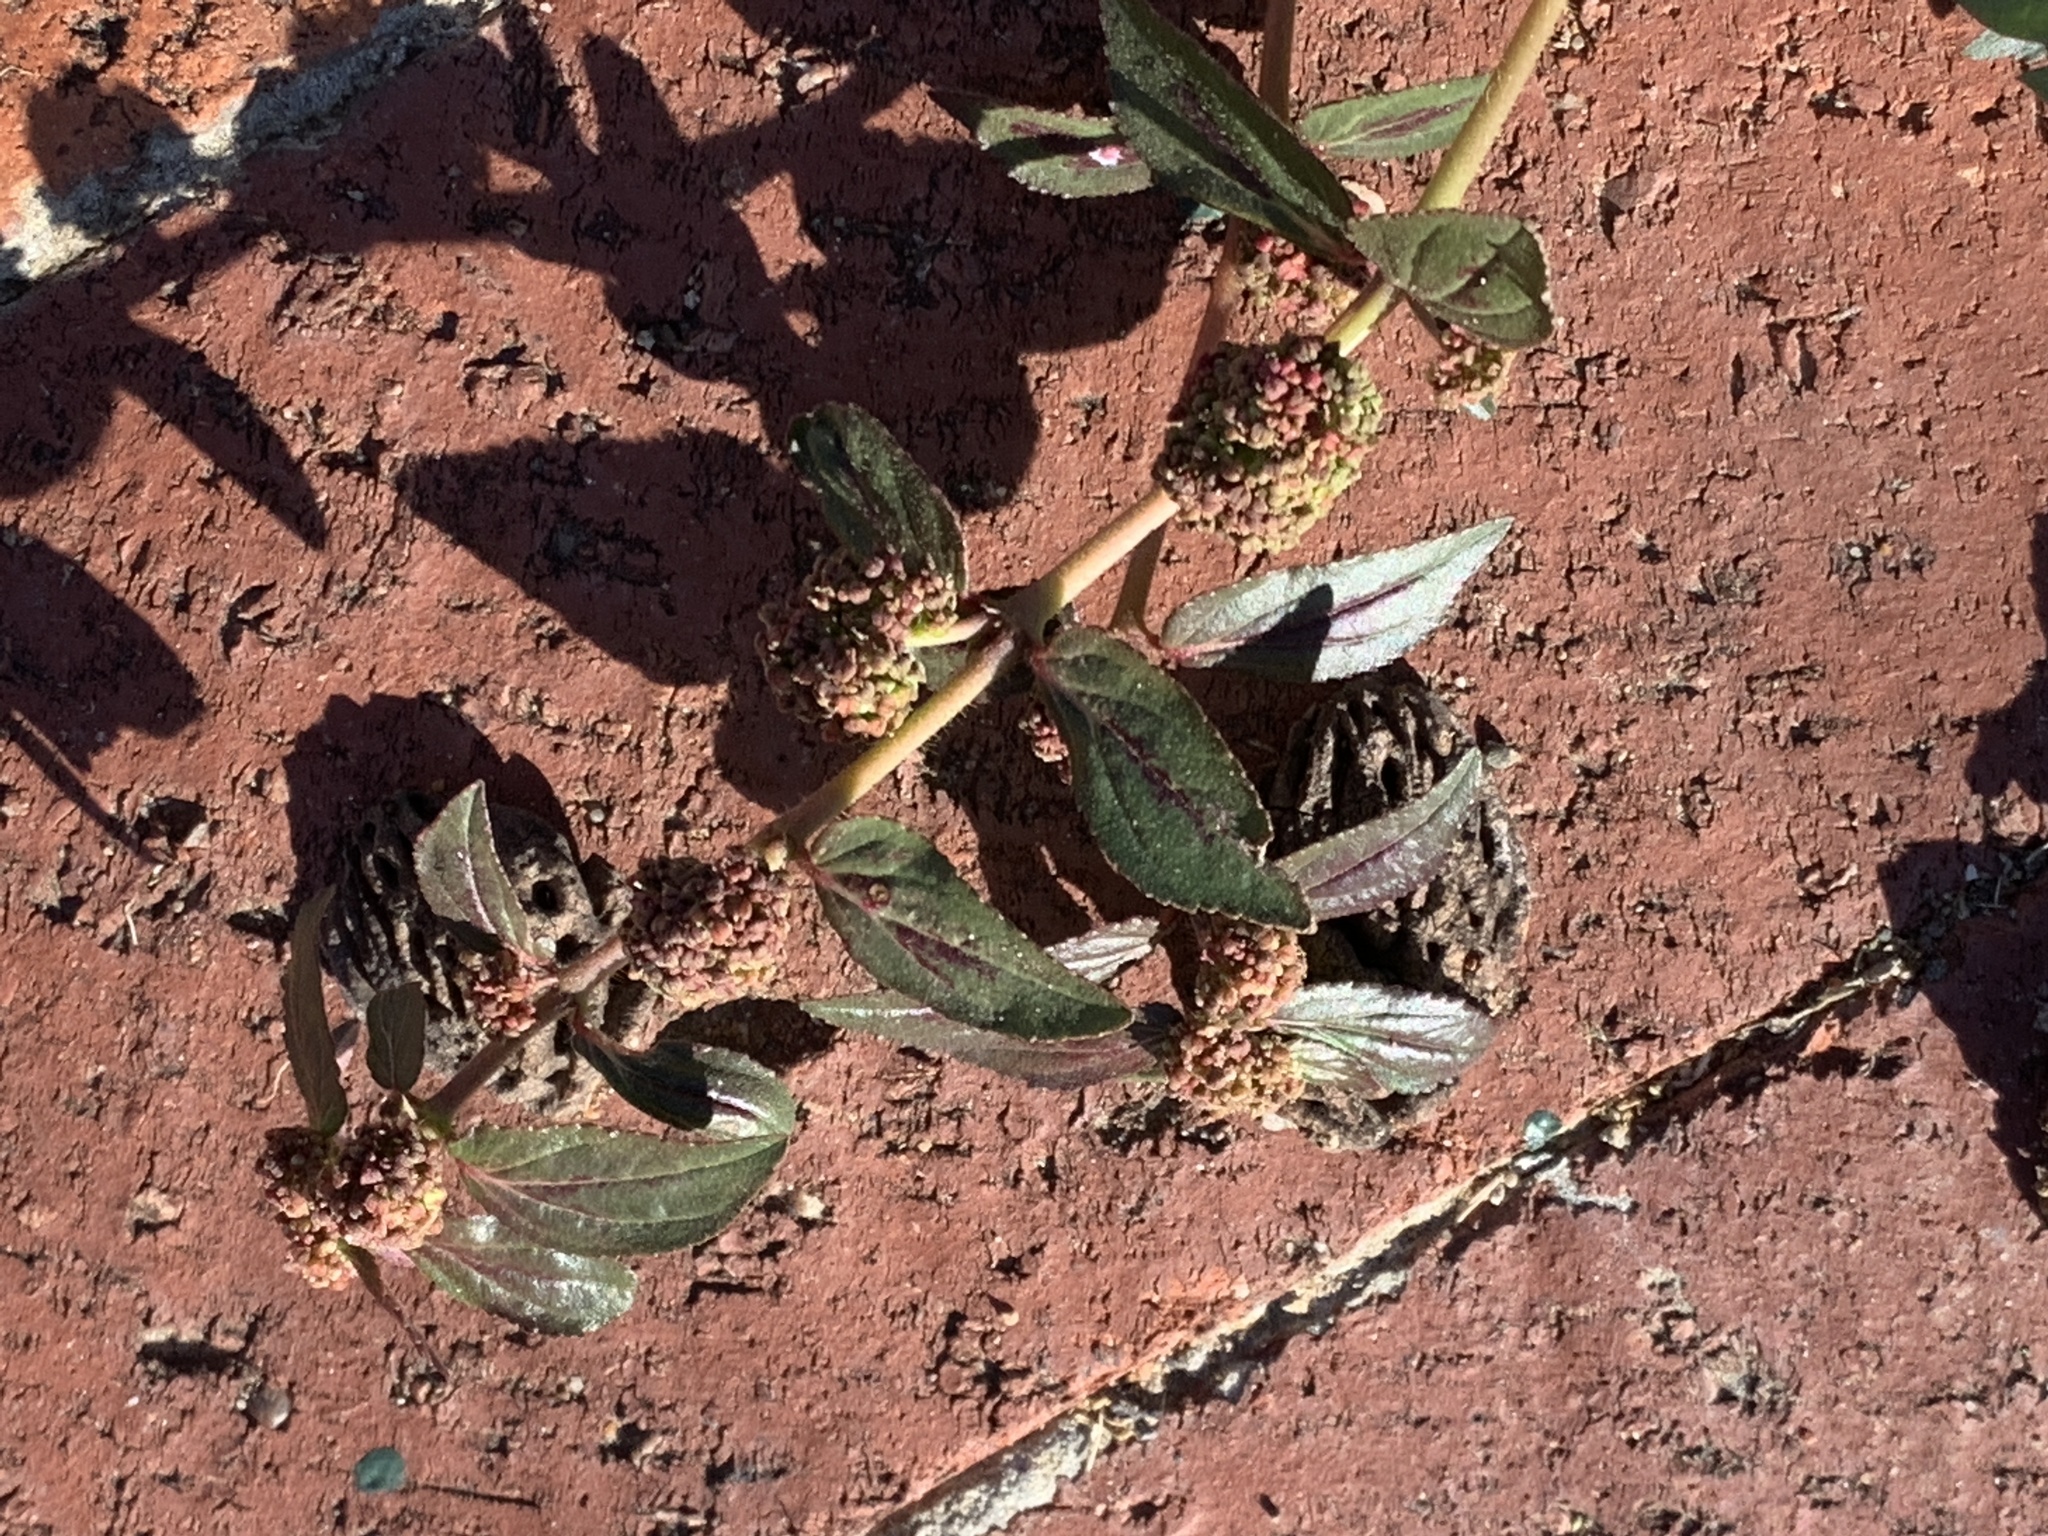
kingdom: Plantae
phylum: Tracheophyta
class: Magnoliopsida
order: Malpighiales
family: Euphorbiaceae
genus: Euphorbia
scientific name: Euphorbia hirta
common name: Pillpod sandmat
